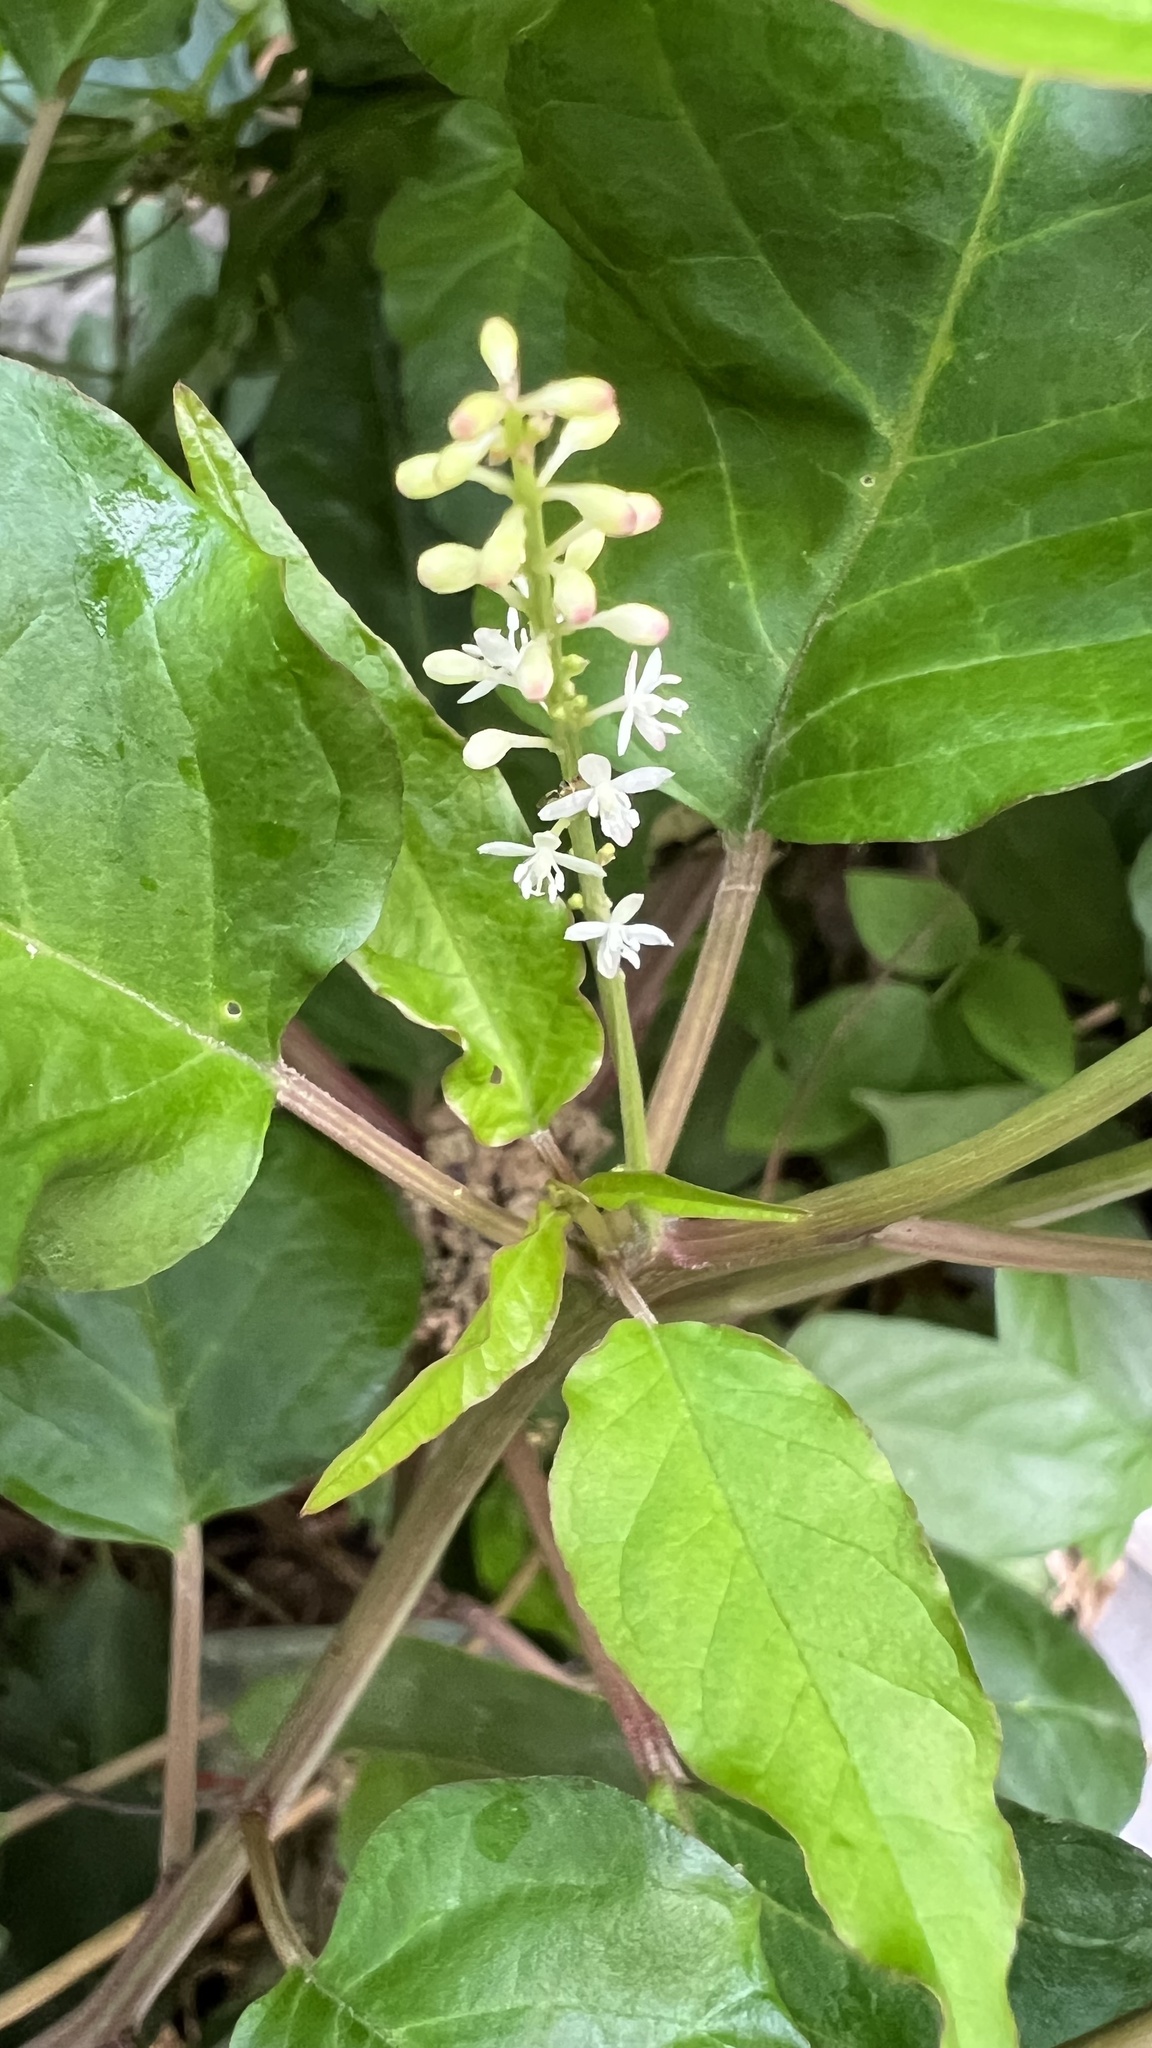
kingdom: Plantae
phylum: Tracheophyta
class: Magnoliopsida
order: Caryophyllales
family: Phytolaccaceae
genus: Rivina
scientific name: Rivina humilis
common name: Rougeplant
